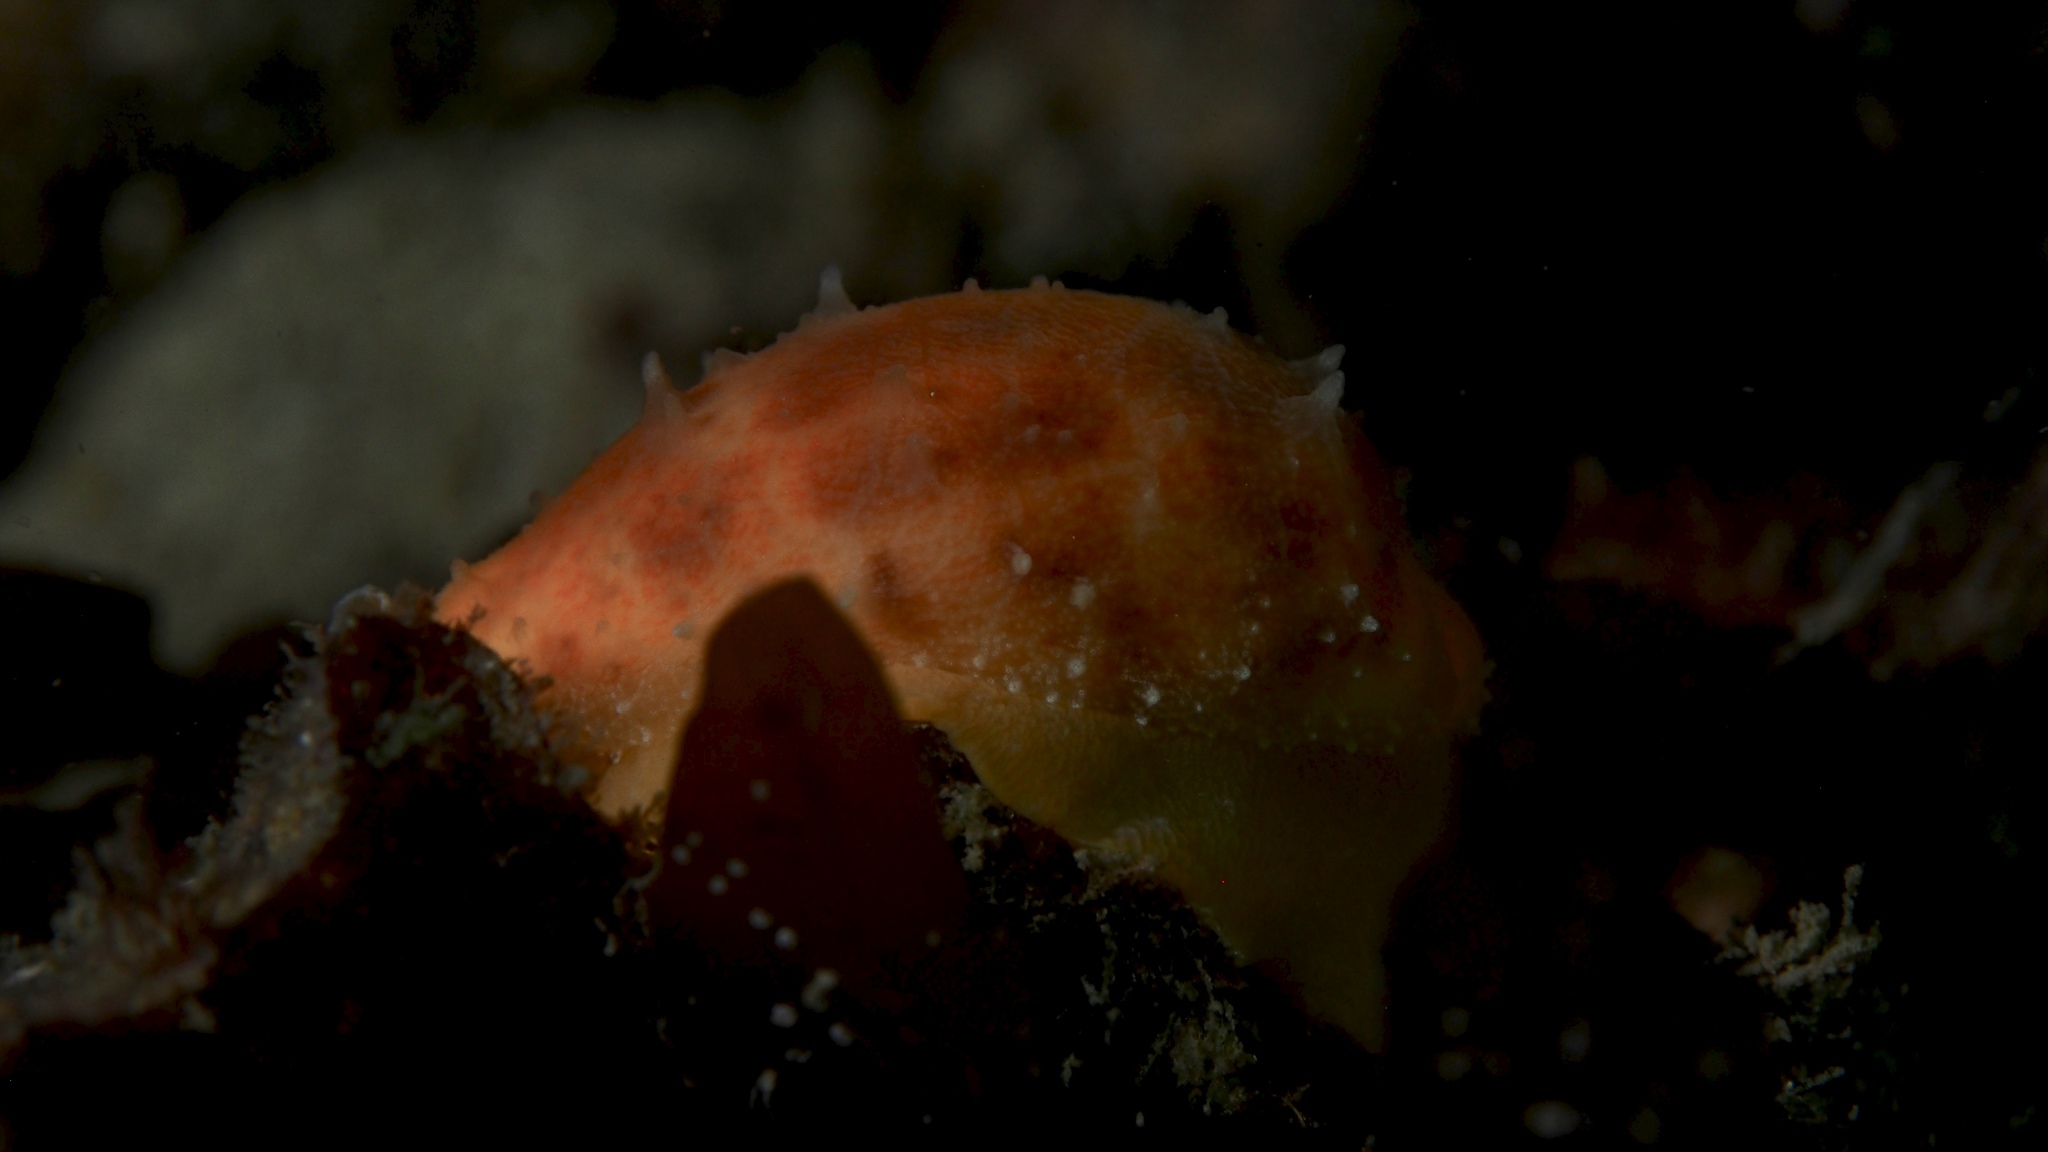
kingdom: Animalia
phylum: Mollusca
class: Gastropoda
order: Littorinimorpha
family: Cypraeidae
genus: Notocypraea
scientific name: Notocypraea piperita
